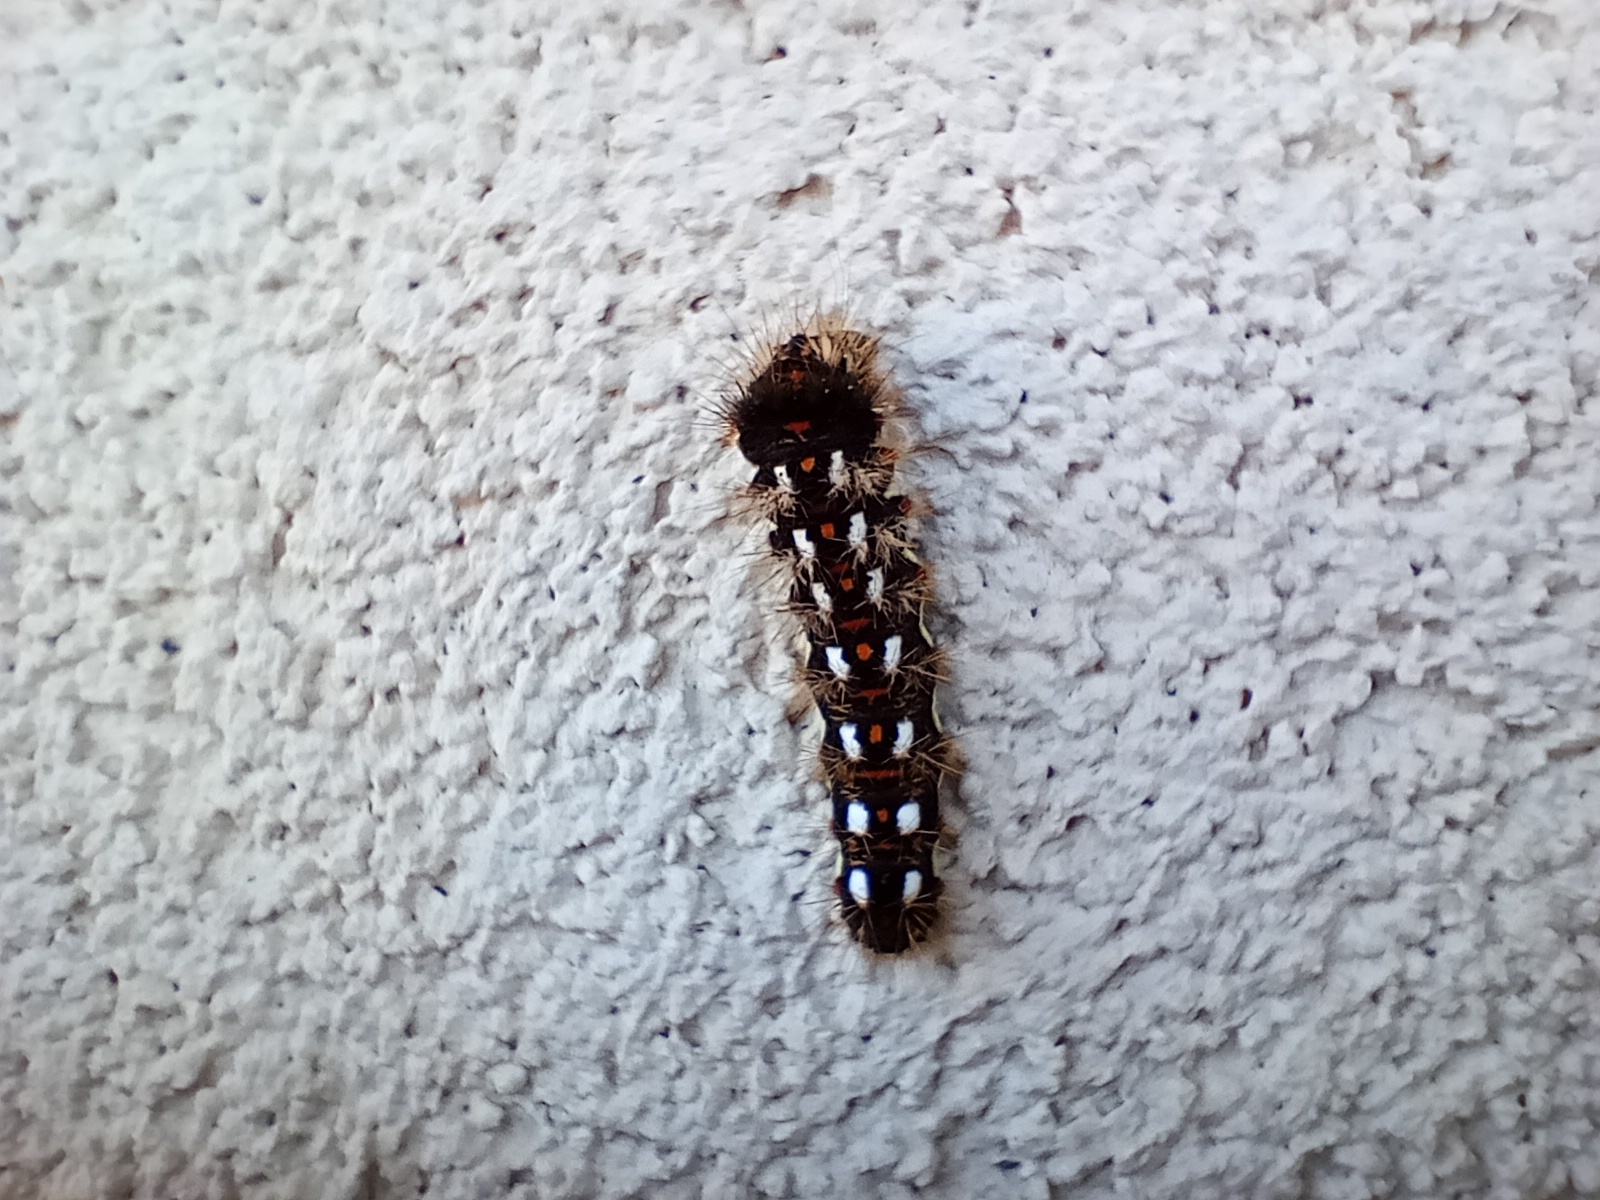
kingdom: Animalia
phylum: Arthropoda
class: Insecta
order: Lepidoptera
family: Noctuidae
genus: Acronicta
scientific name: Acronicta rumicis
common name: Knot grass
